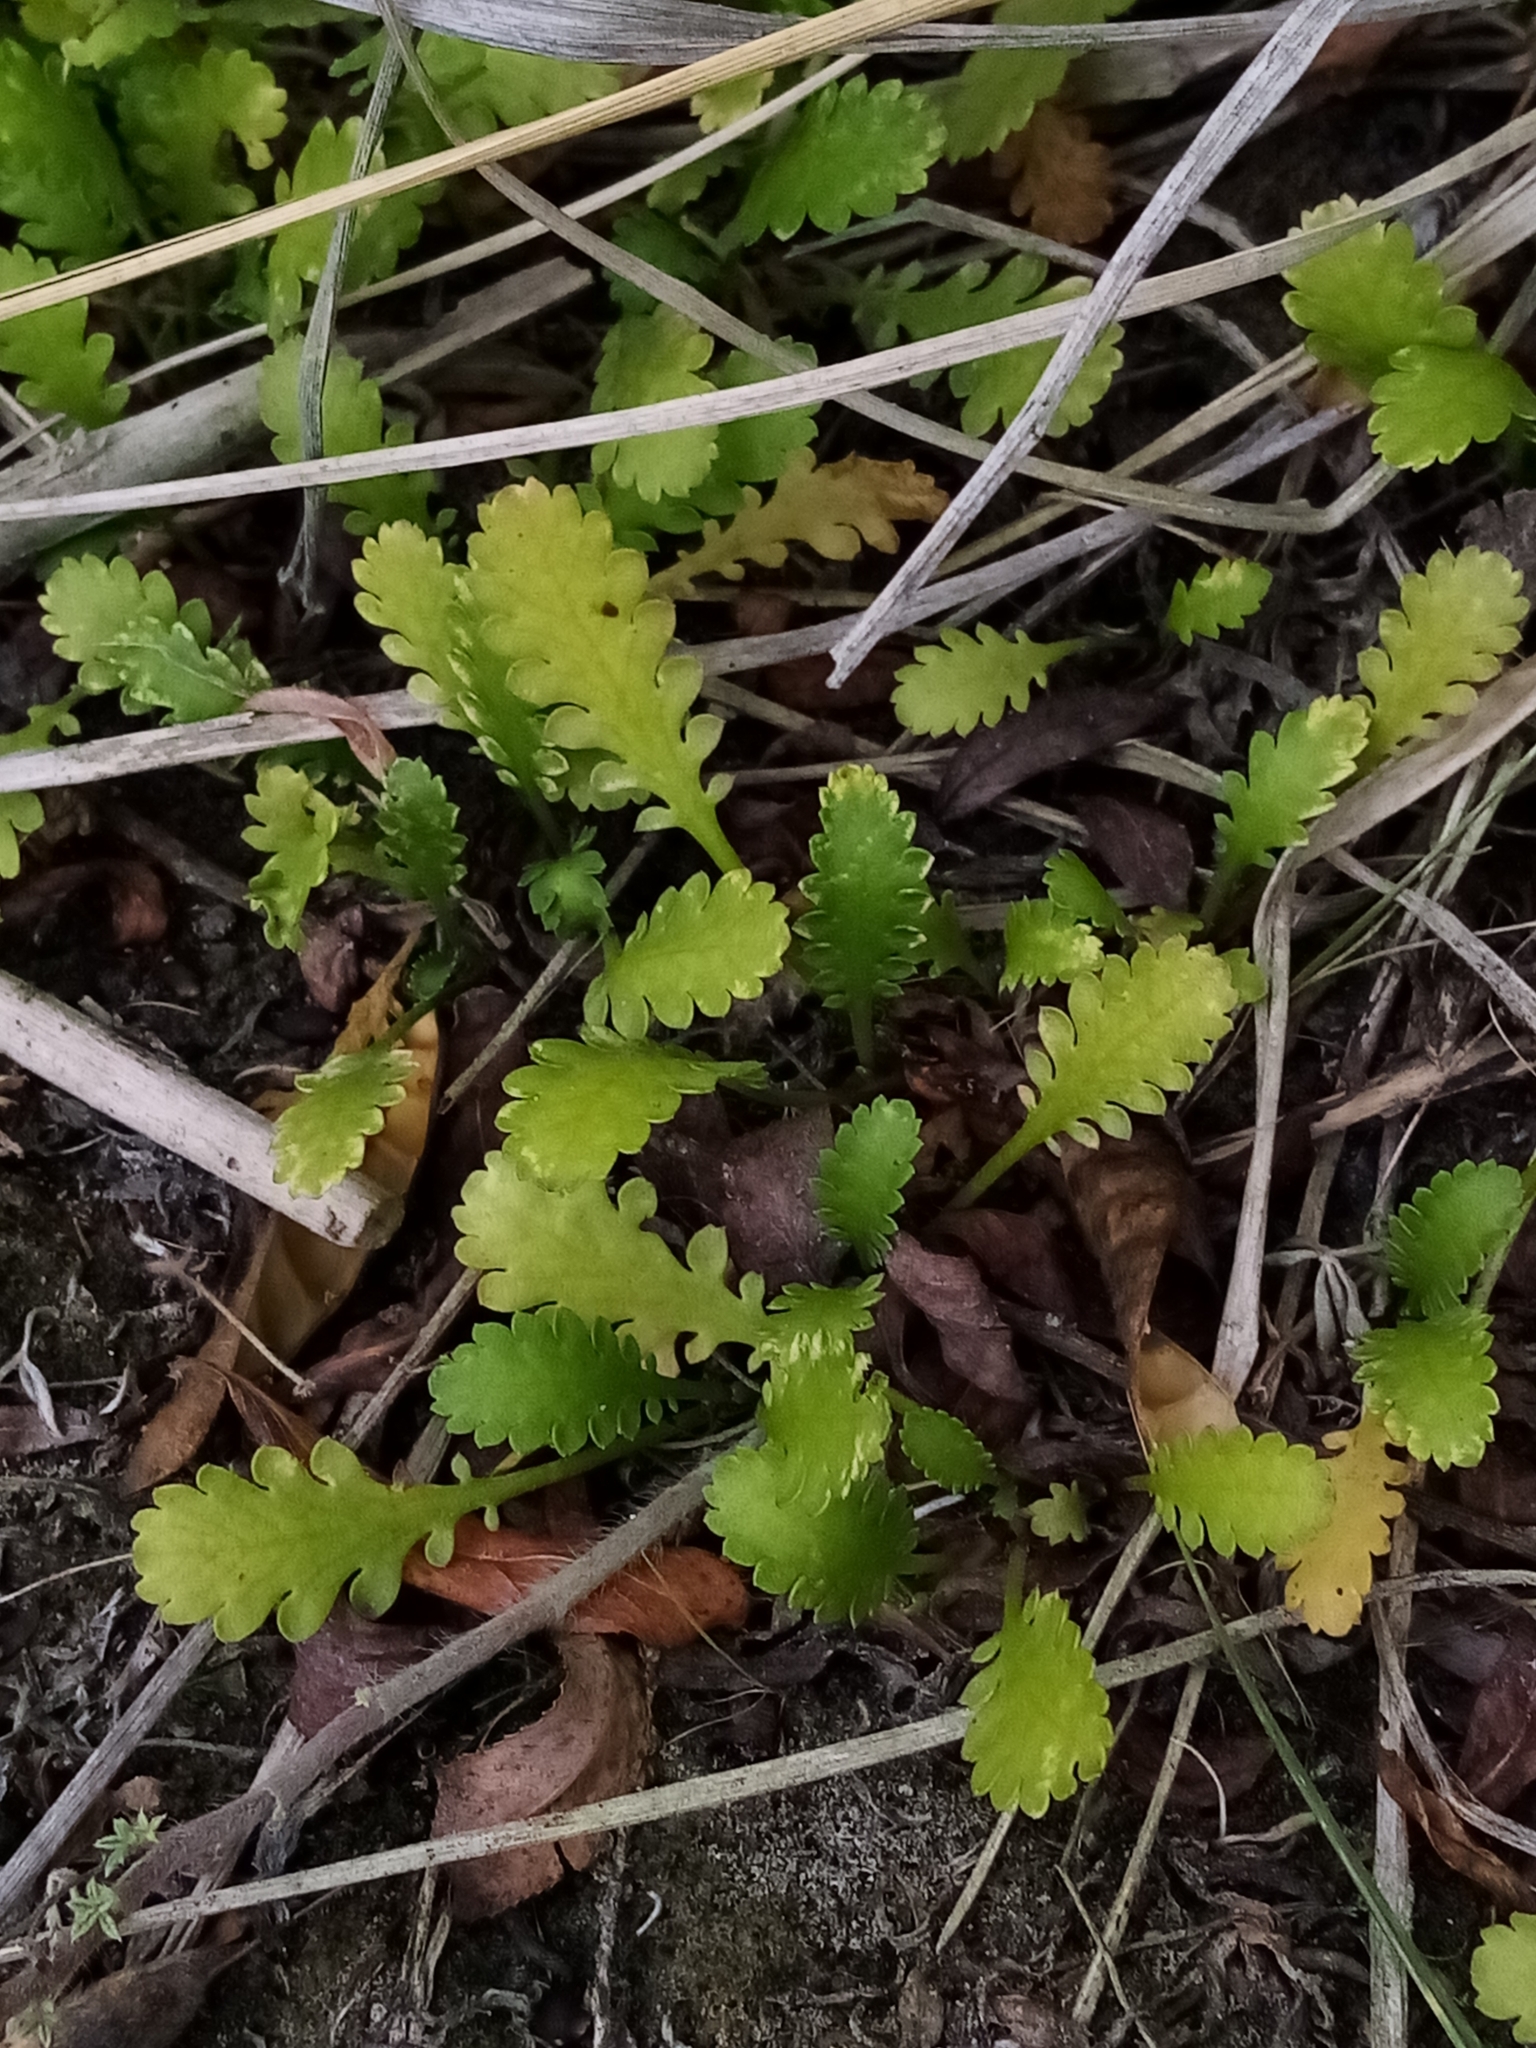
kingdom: Plantae
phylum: Tracheophyta
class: Magnoliopsida
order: Asterales
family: Asteraceae
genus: Leptinella
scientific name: Leptinella dioica
